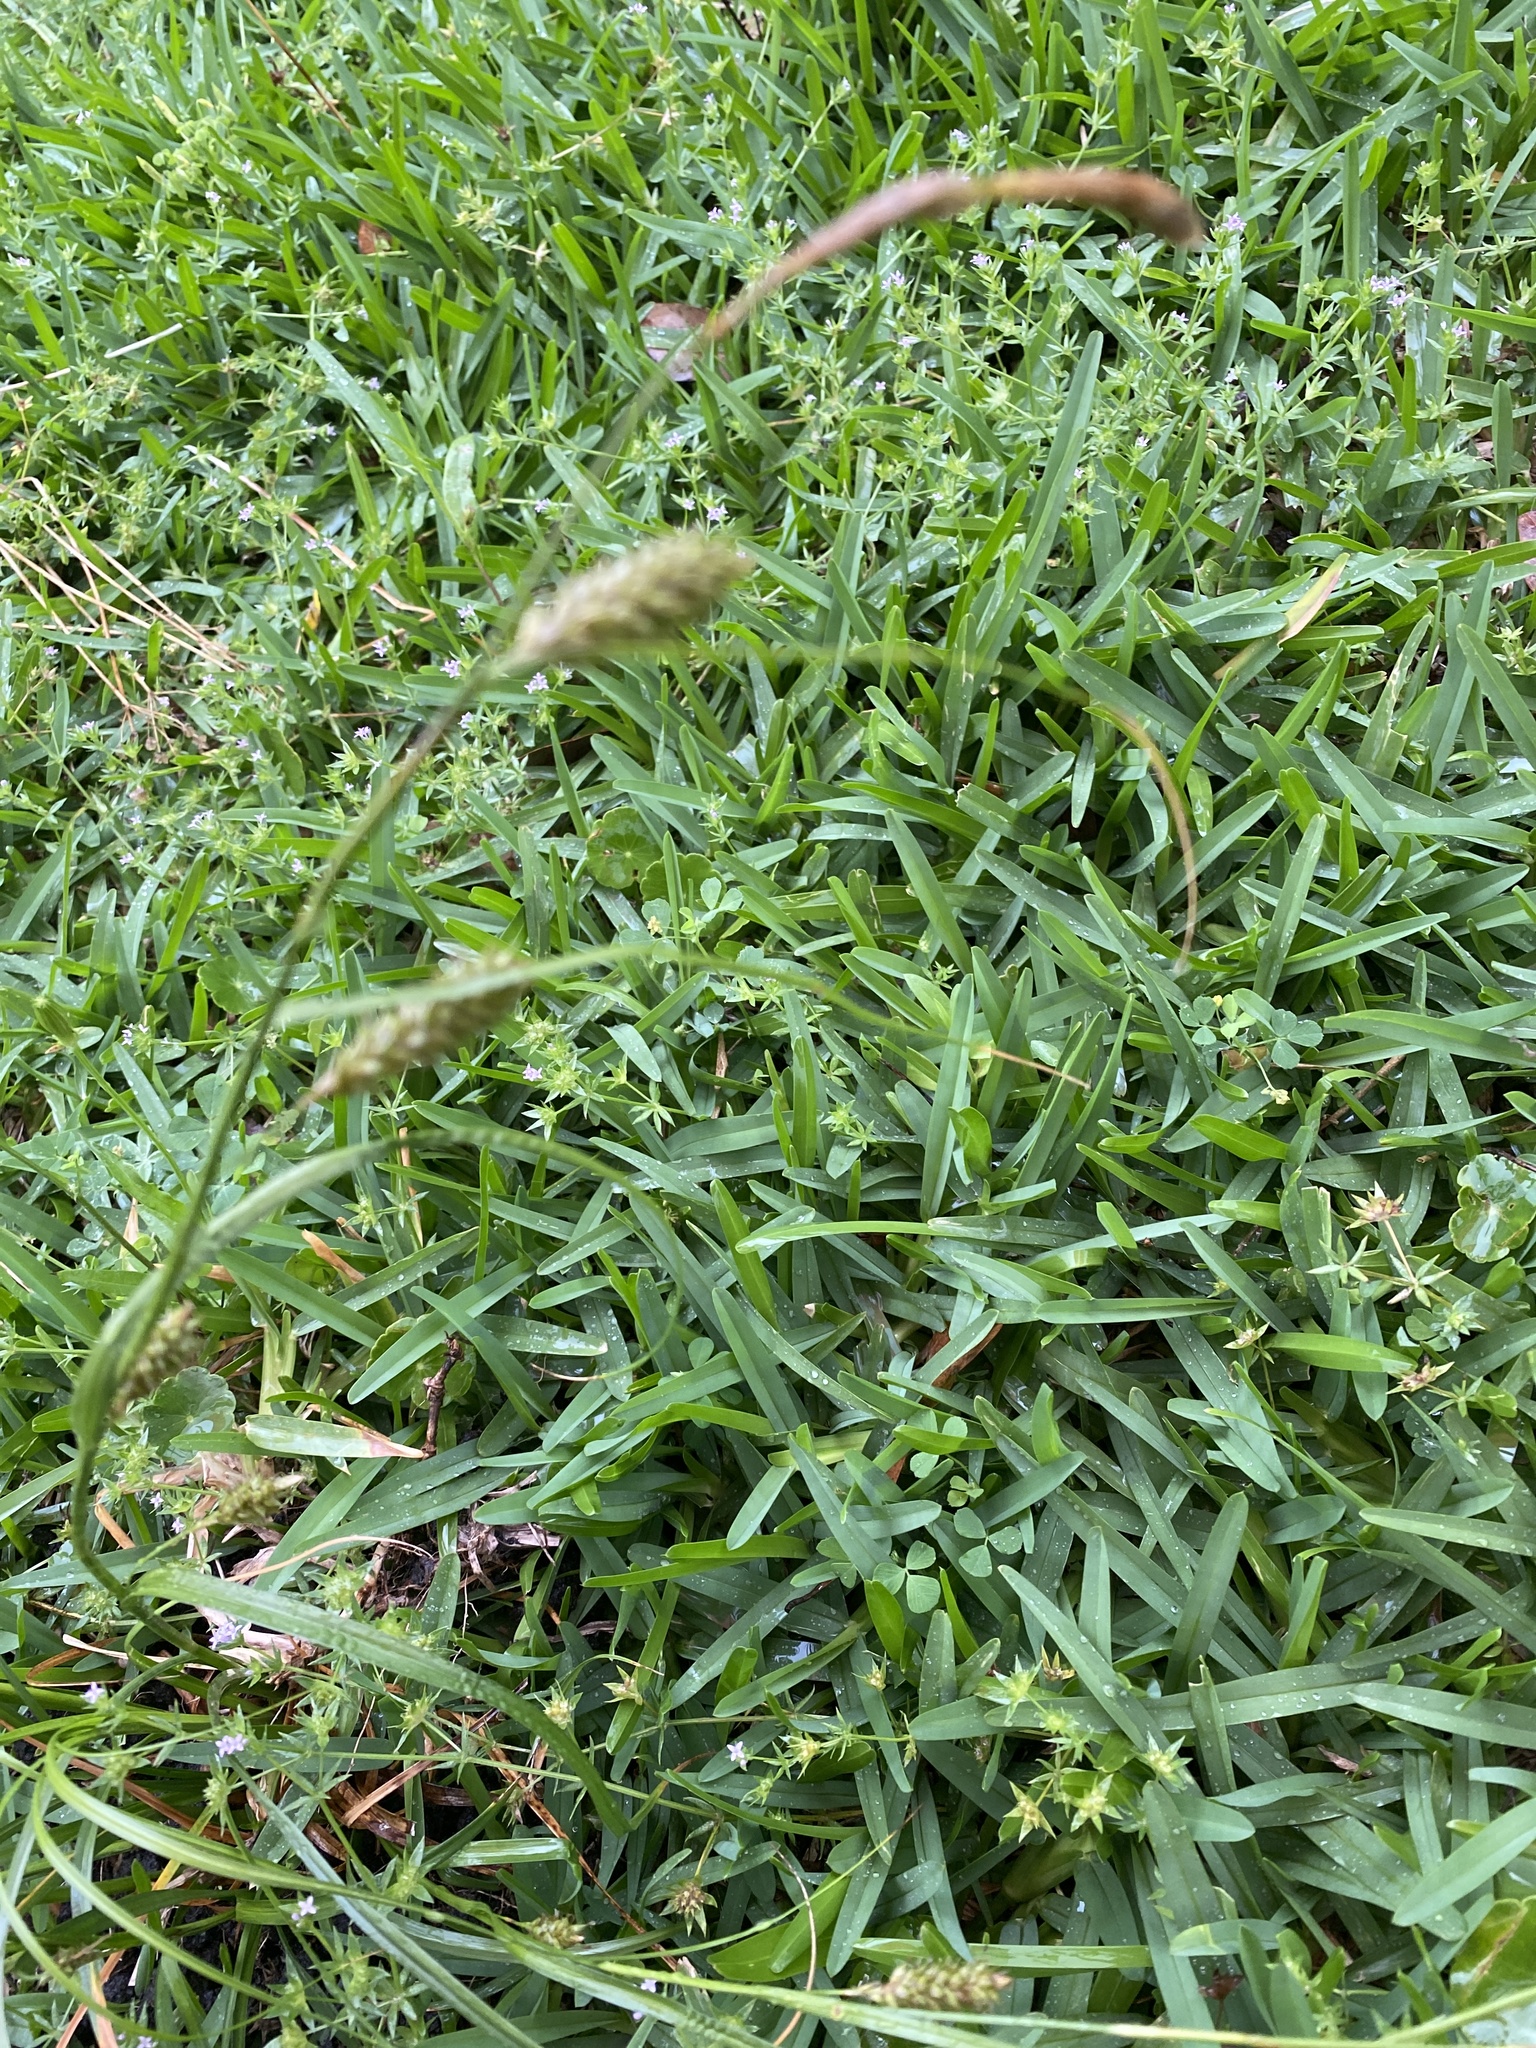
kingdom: Plantae
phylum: Tracheophyta
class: Liliopsida
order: Poales
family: Cyperaceae
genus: Carex
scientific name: Carex cherokeensis
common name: Cherokee sedge
